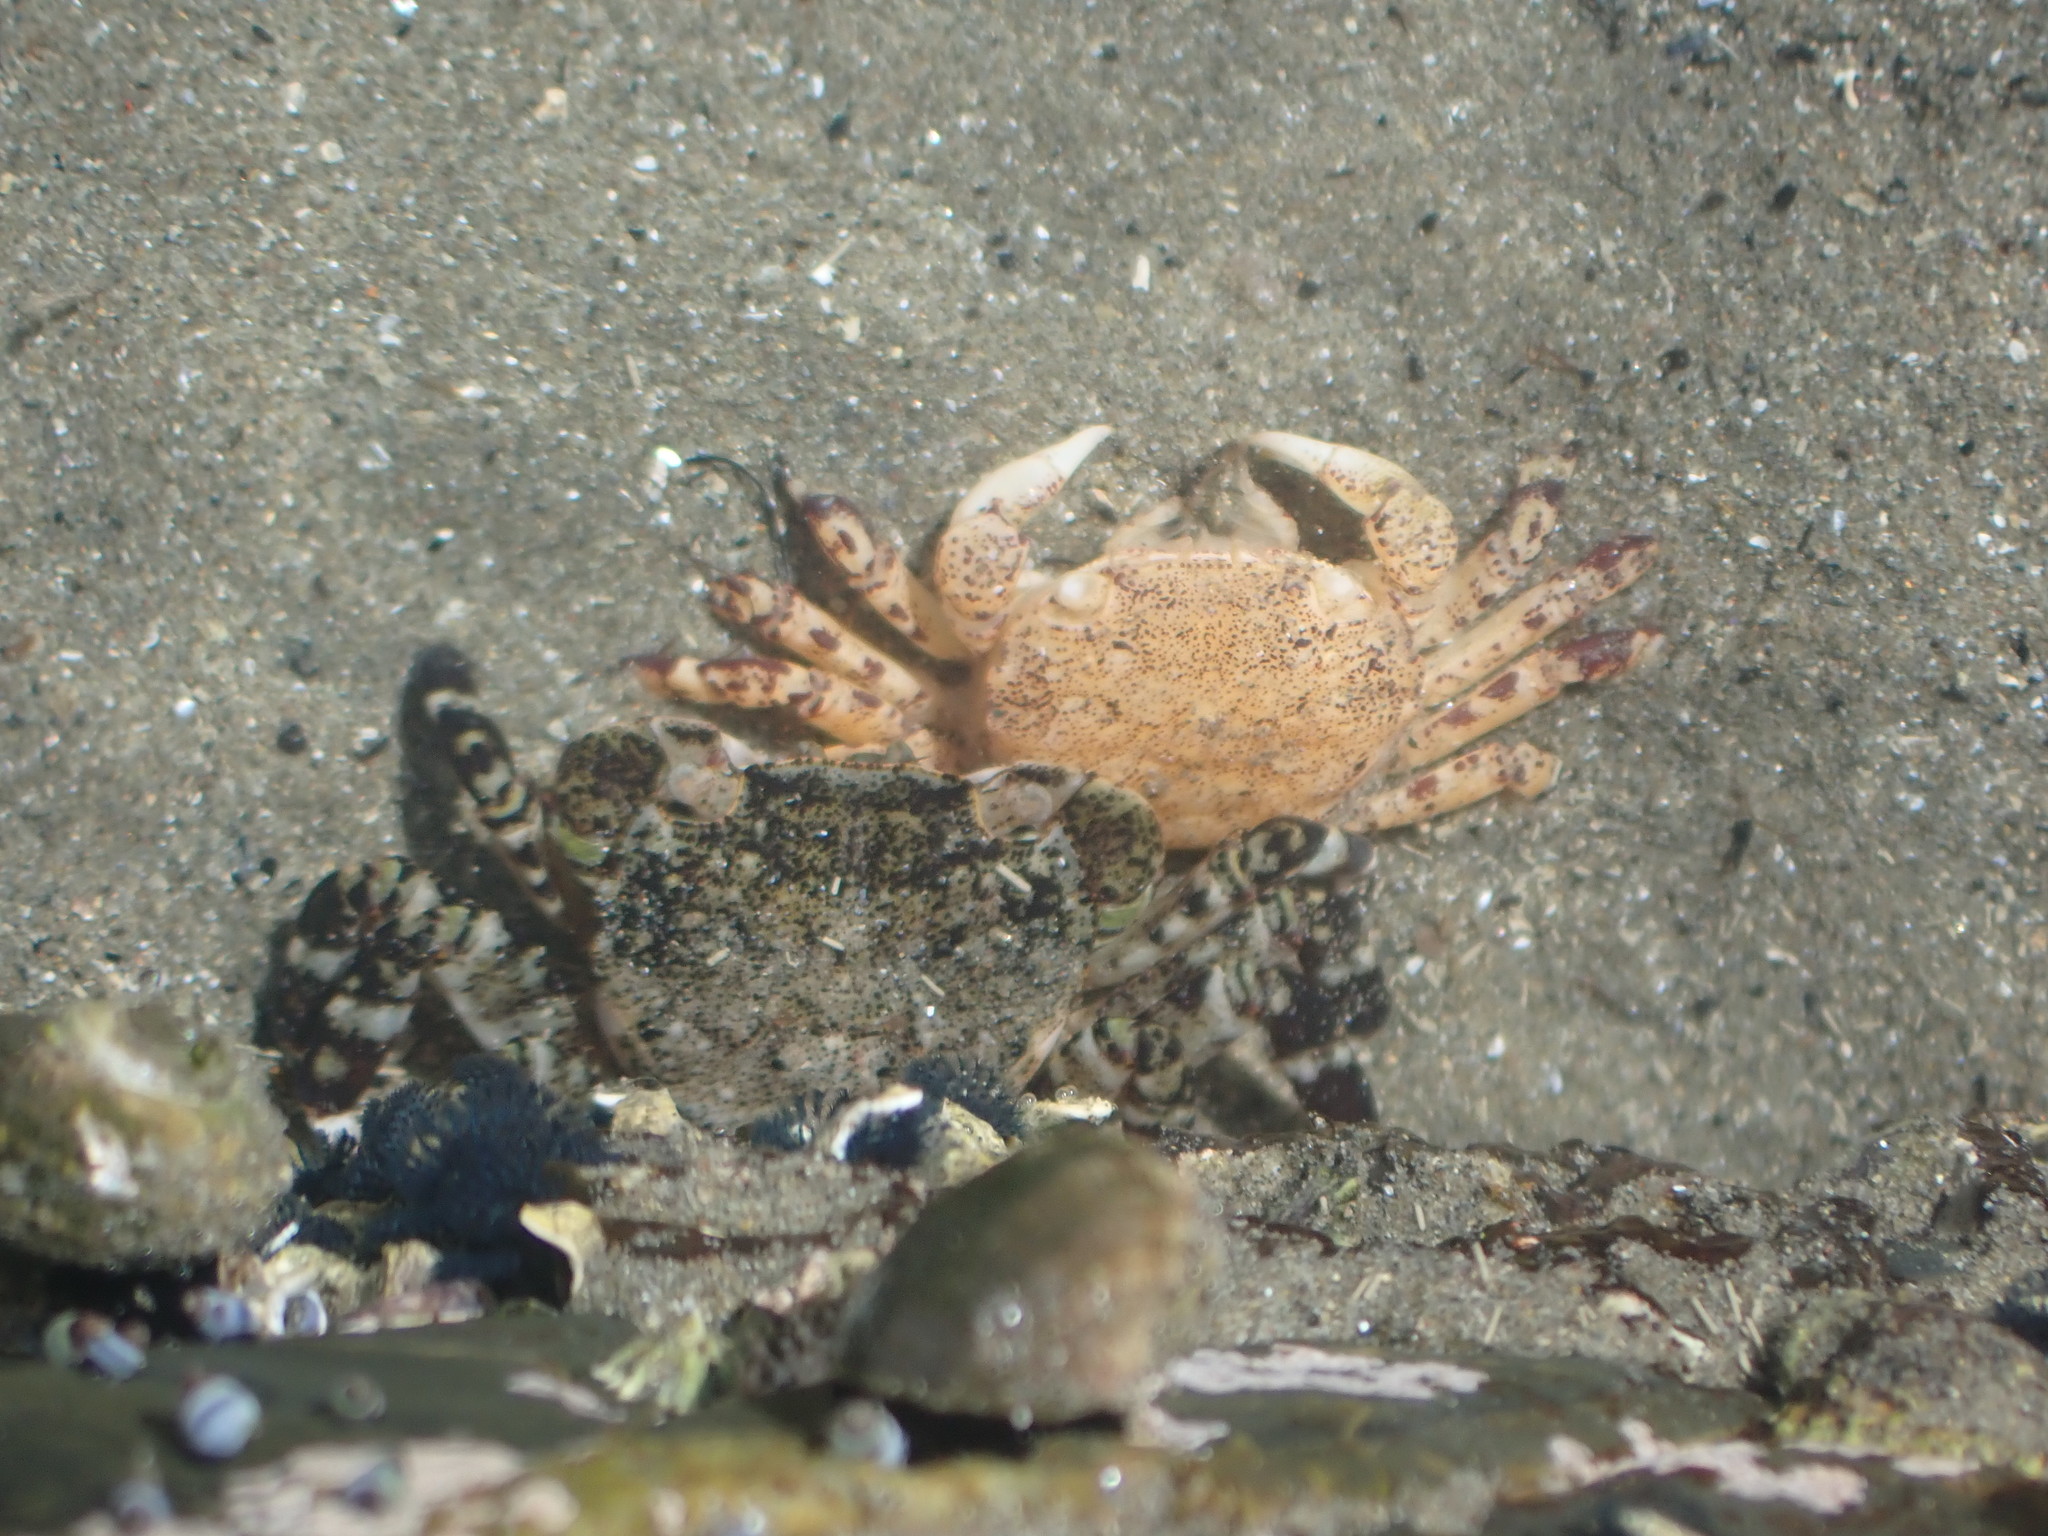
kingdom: Animalia
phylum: Arthropoda
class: Malacostraca
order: Decapoda
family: Varunidae
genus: Hemigrapsus
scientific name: Hemigrapsus sexdentatus
